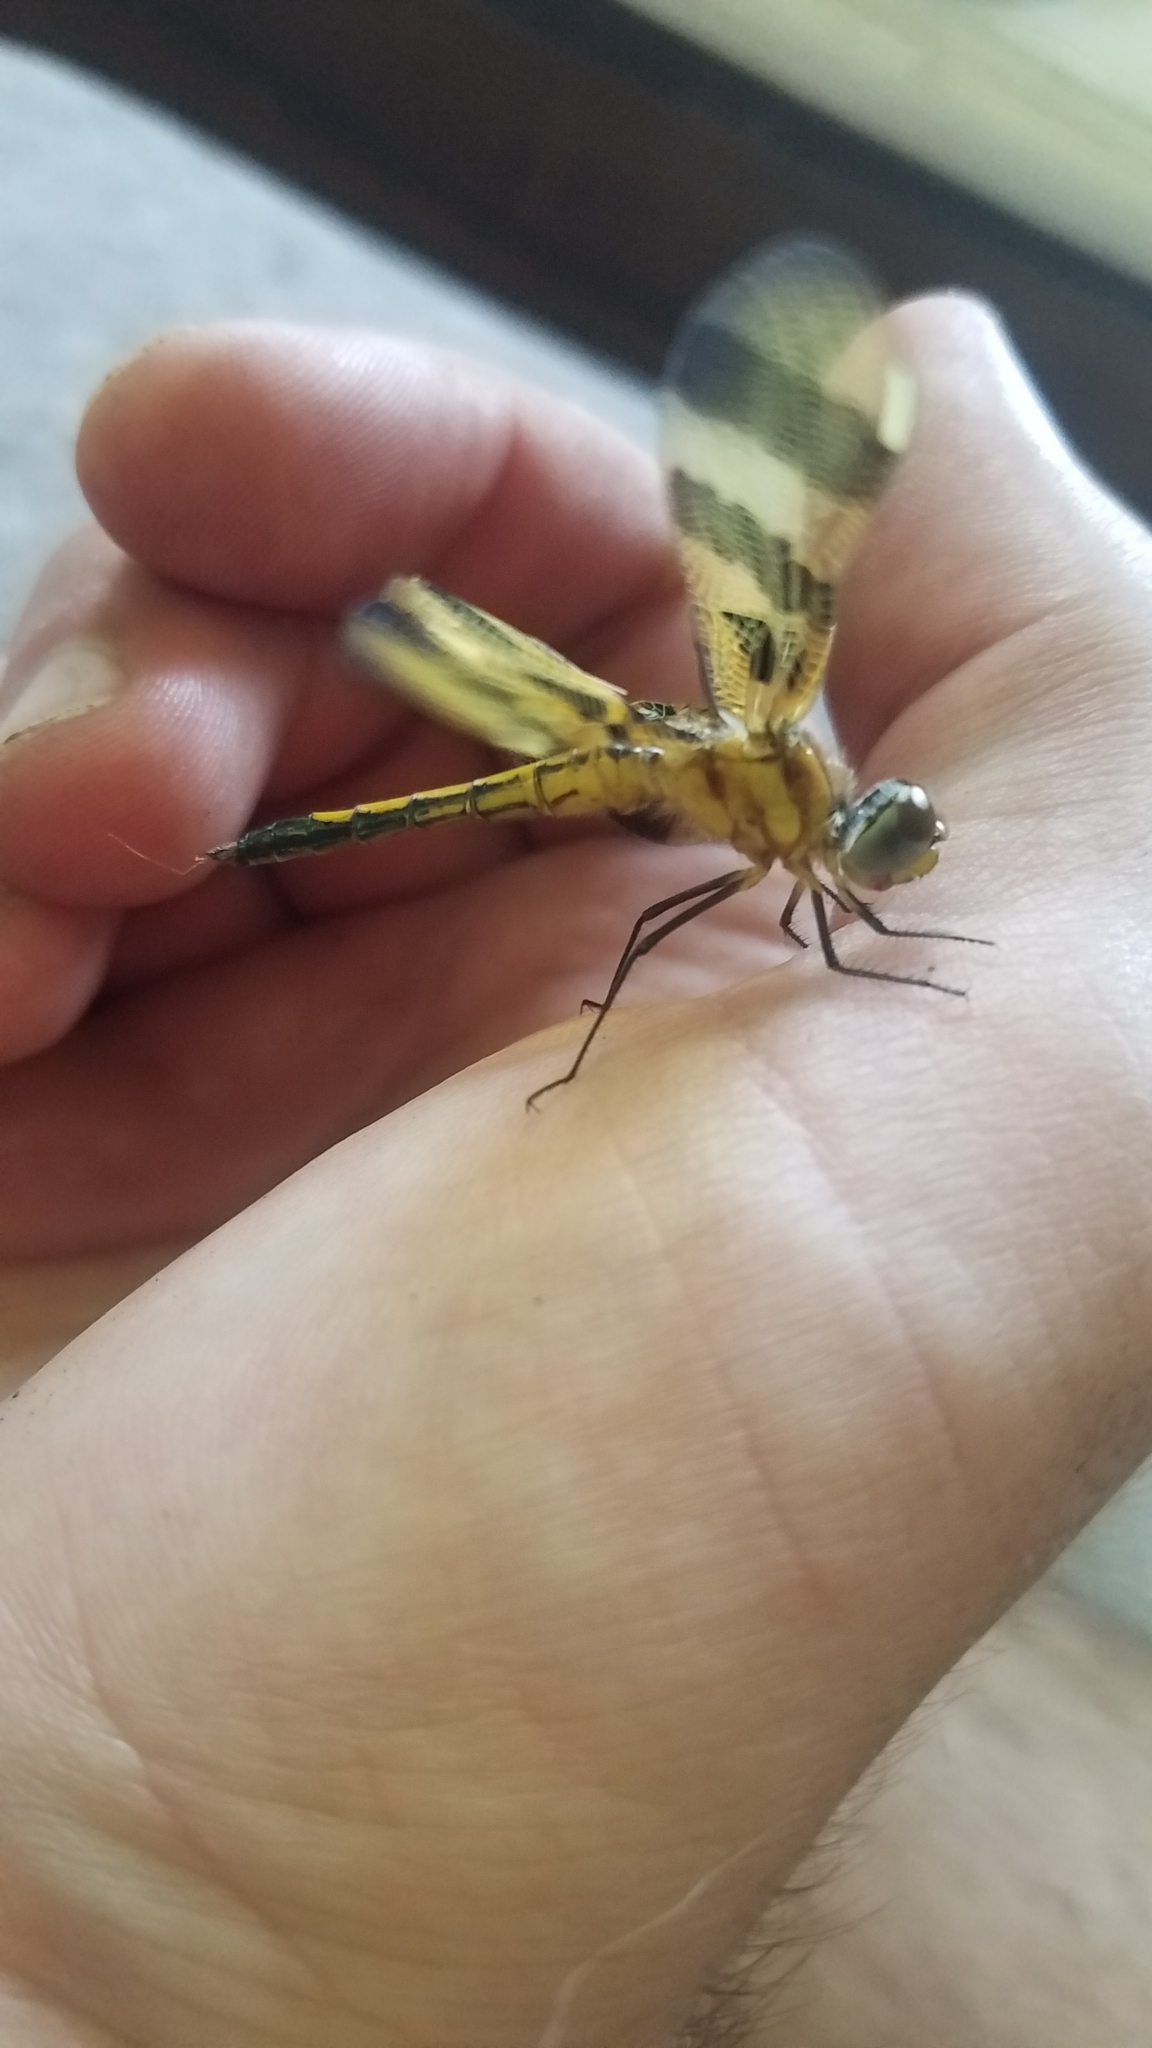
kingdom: Animalia
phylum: Arthropoda
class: Insecta
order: Odonata
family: Libellulidae
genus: Celithemis
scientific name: Celithemis eponina
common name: Halloween pennant
